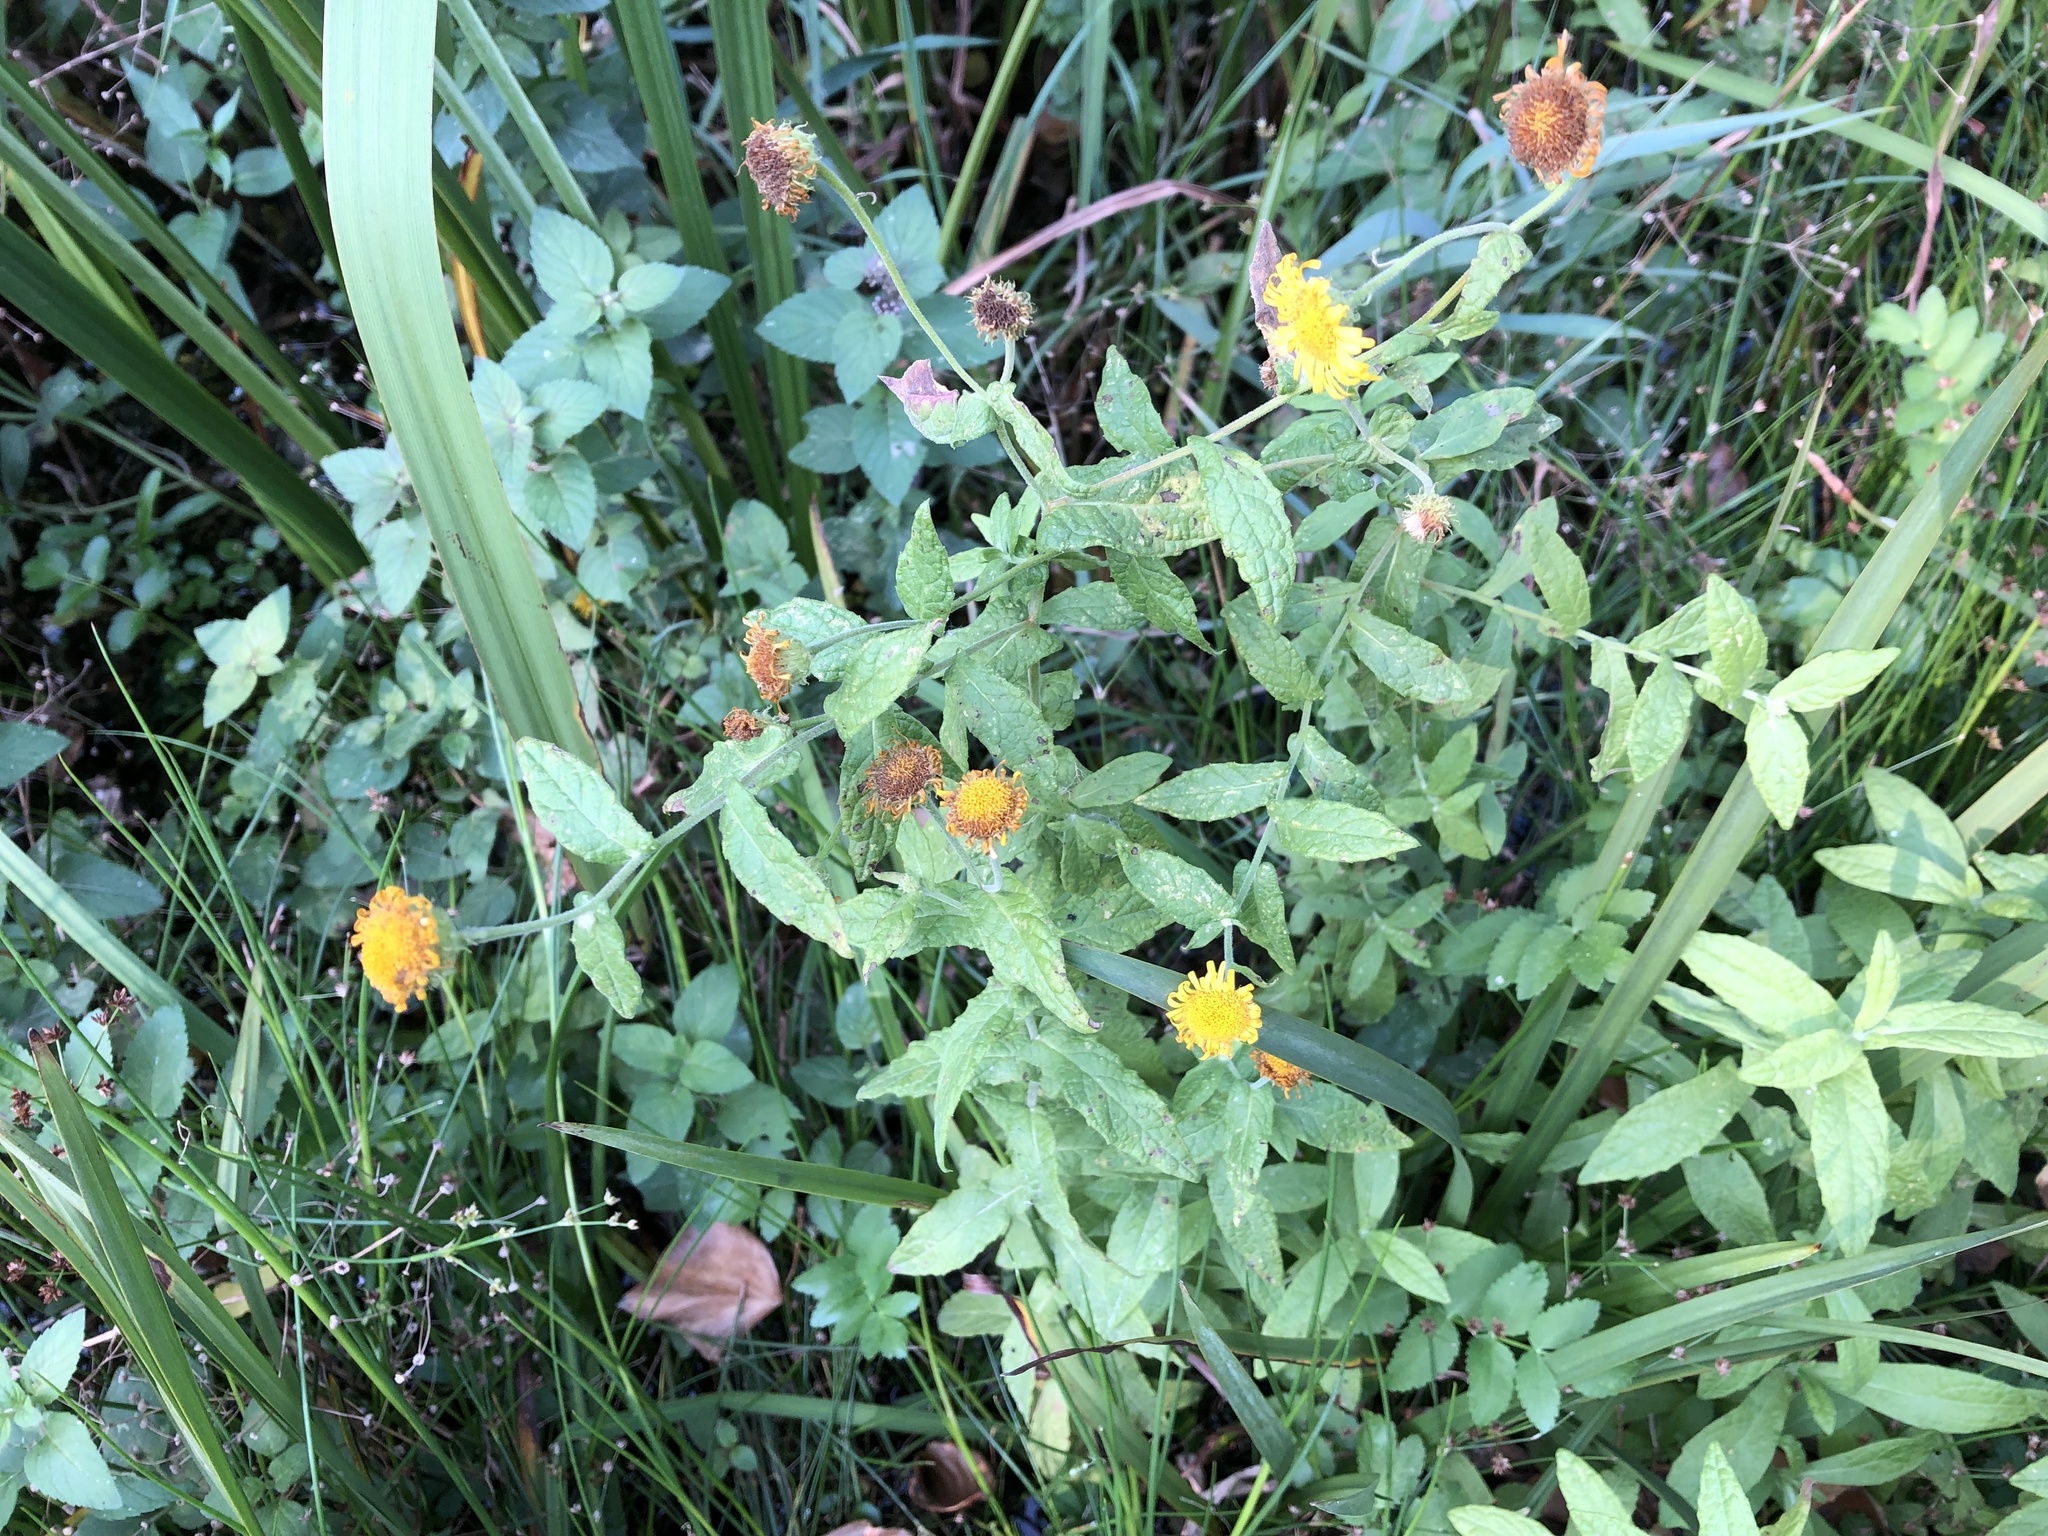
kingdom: Plantae
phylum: Tracheophyta
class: Magnoliopsida
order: Asterales
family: Asteraceae
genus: Pulicaria
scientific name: Pulicaria dysenterica
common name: Common fleabane
